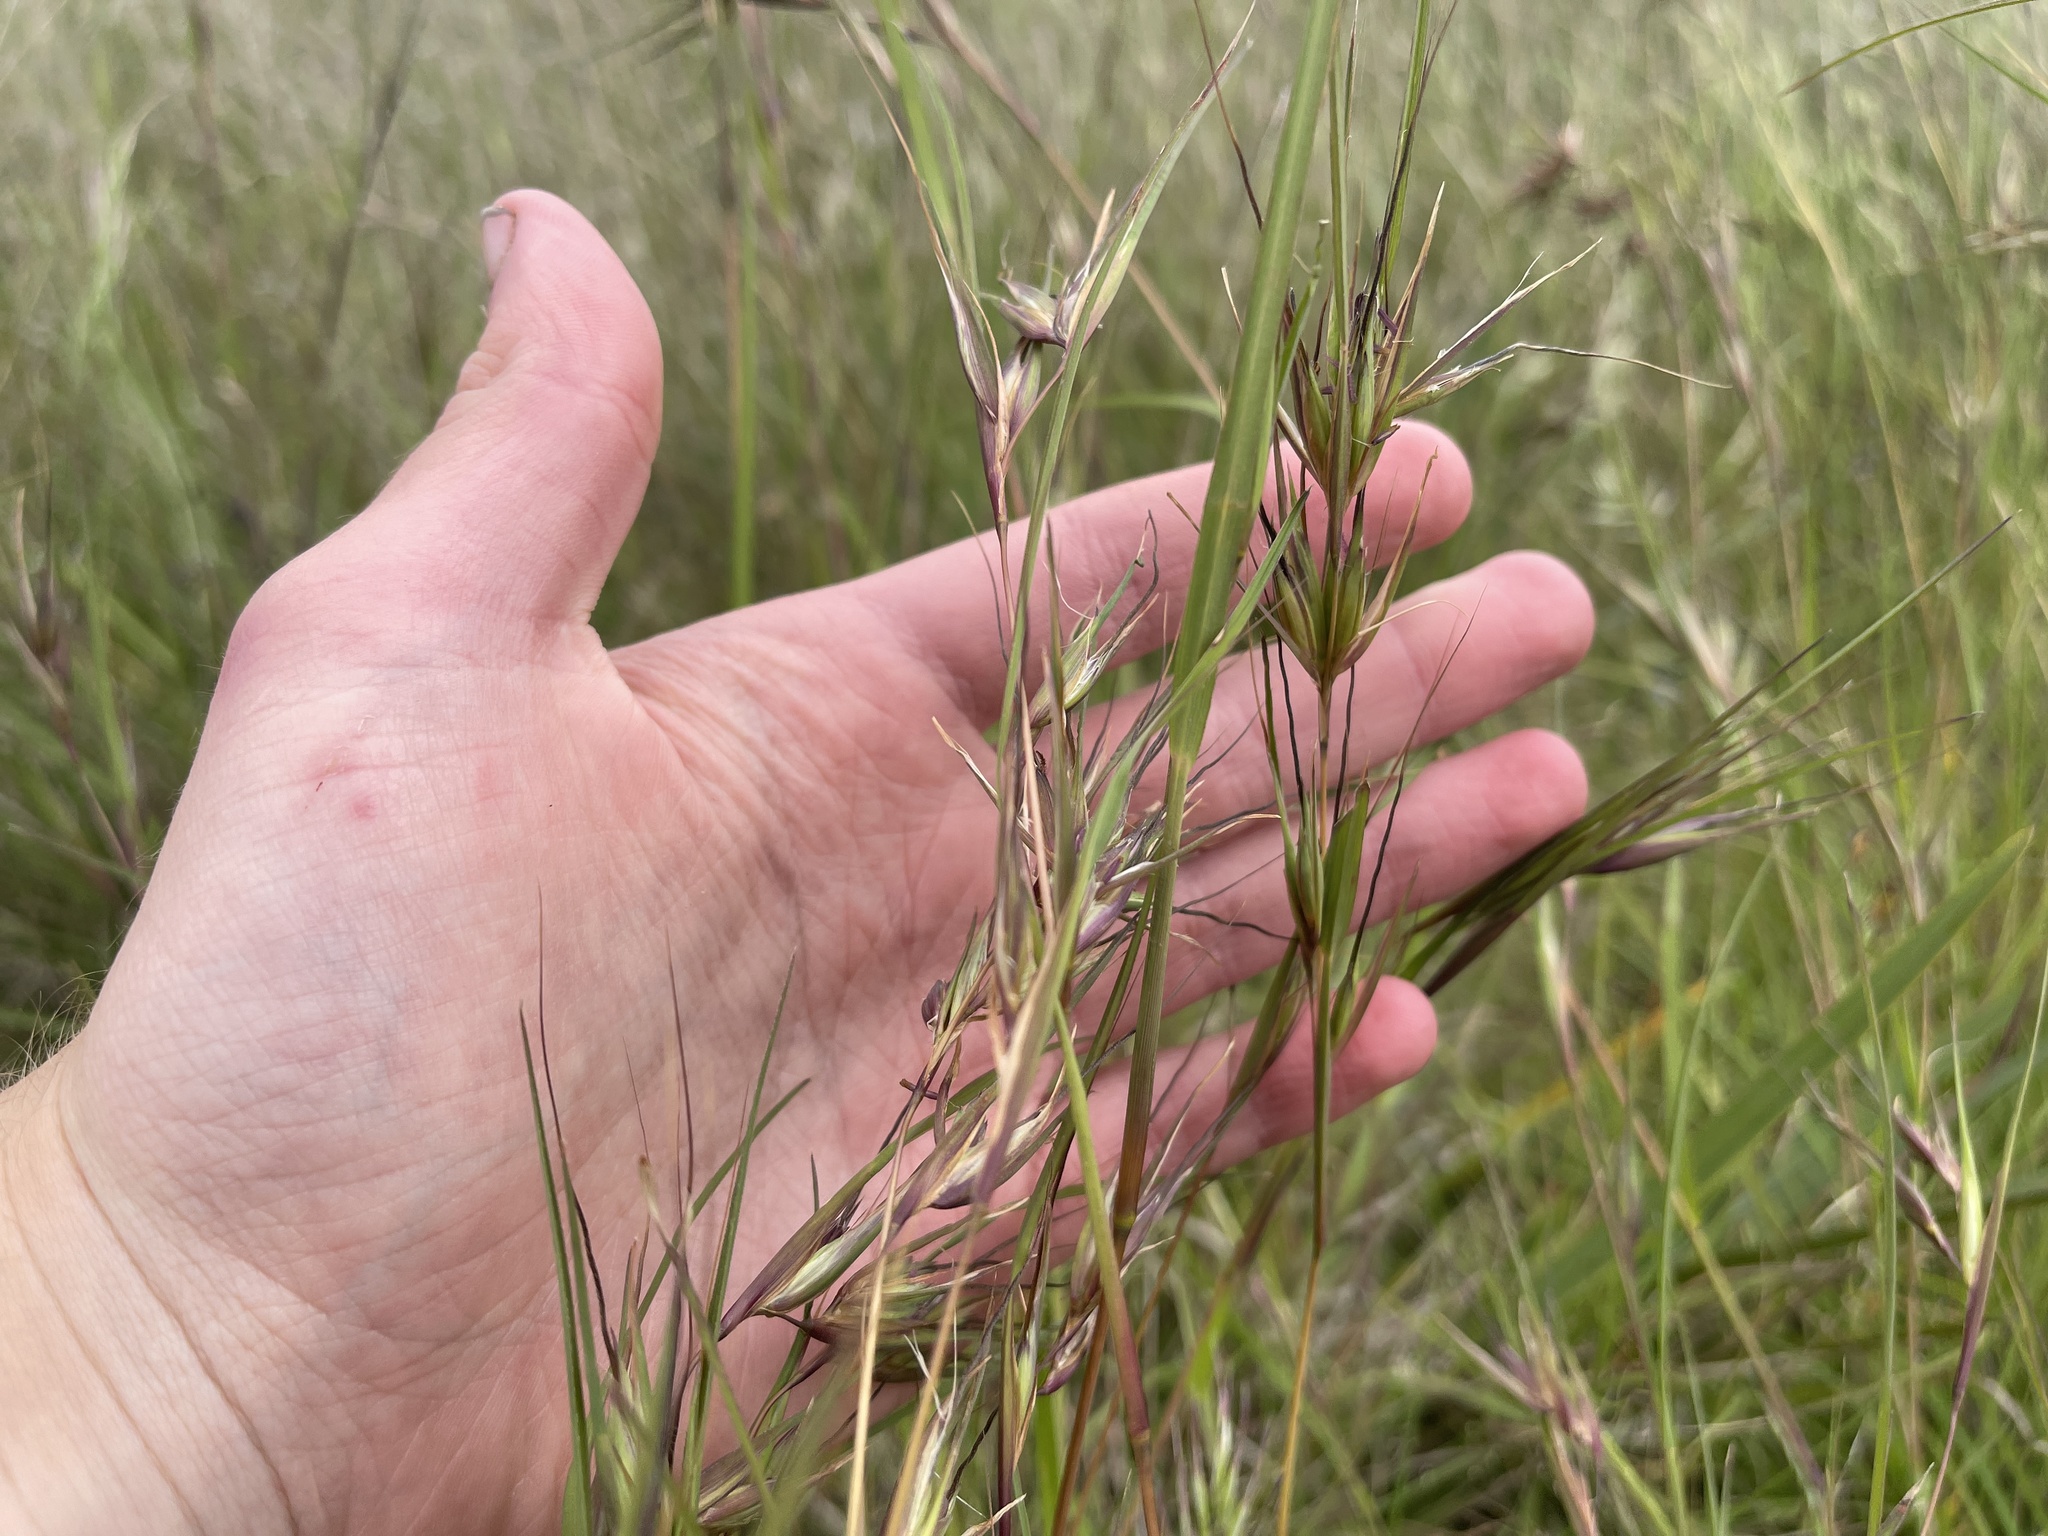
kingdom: Plantae
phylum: Tracheophyta
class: Liliopsida
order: Poales
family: Poaceae
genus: Themeda
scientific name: Themeda triandra
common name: Kangaroo grass
